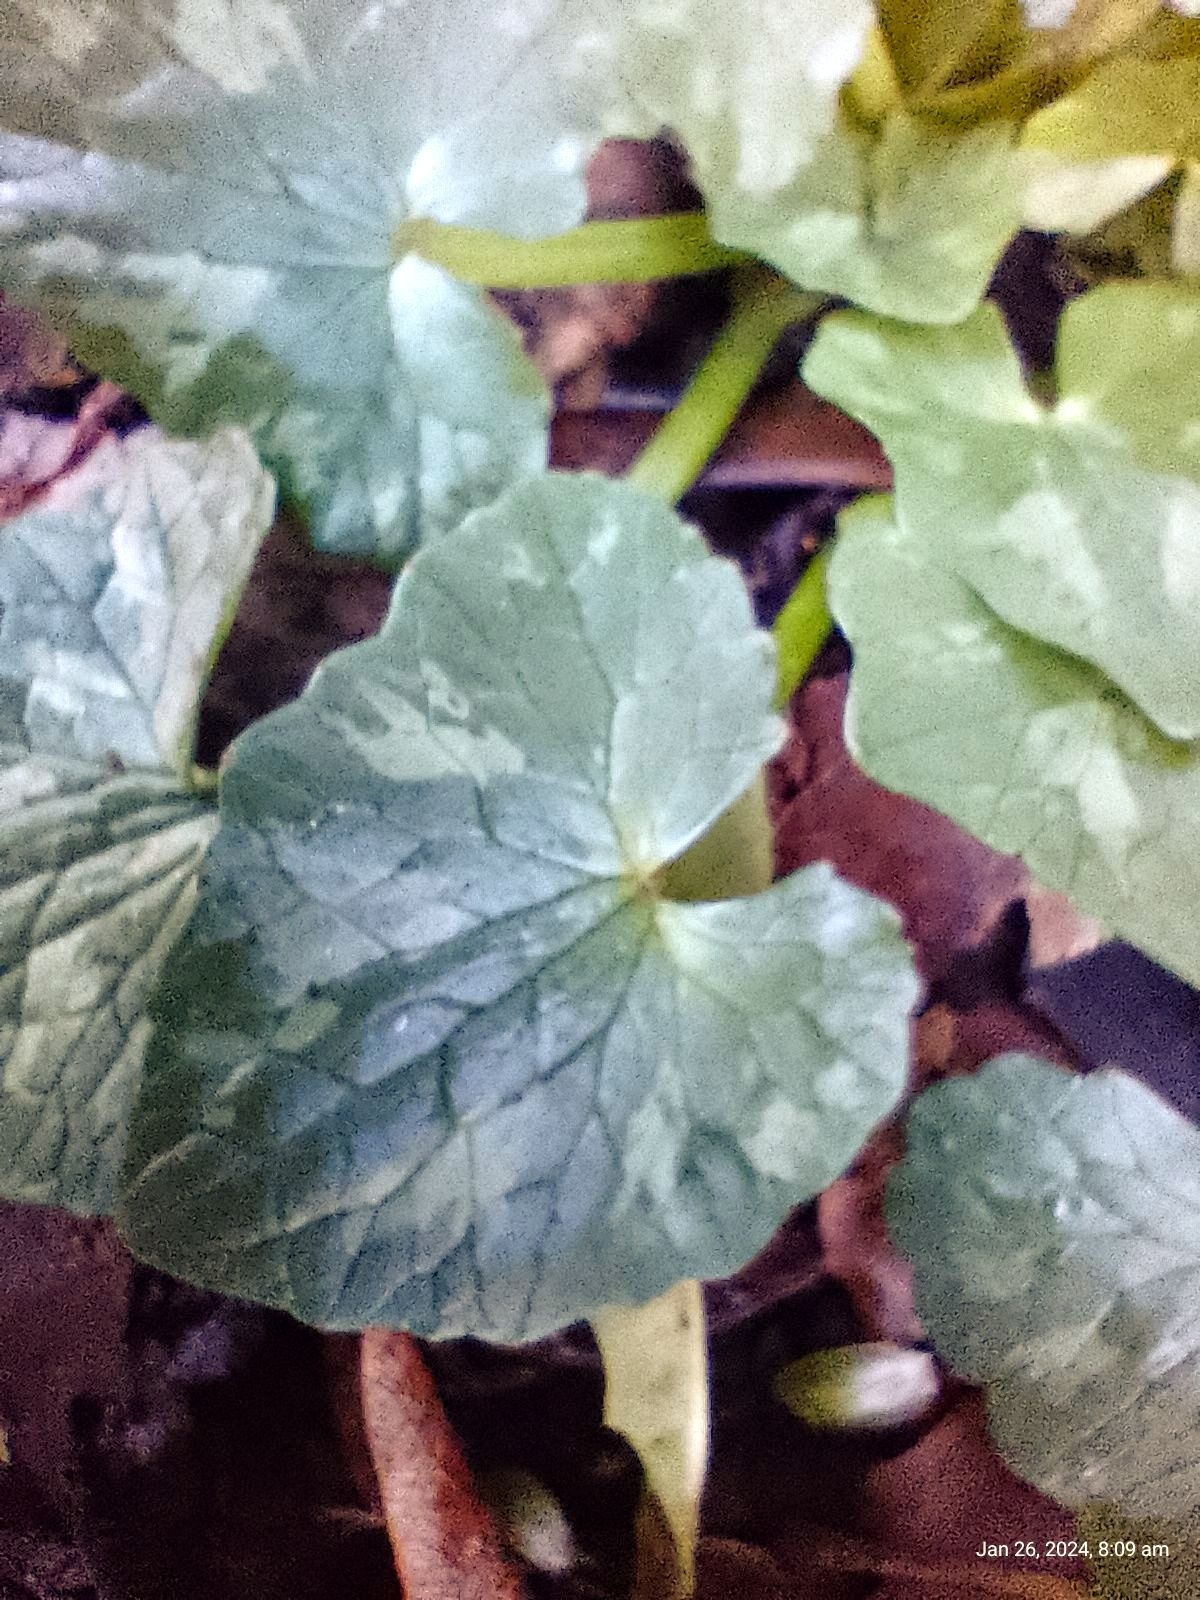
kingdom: Plantae
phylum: Tracheophyta
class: Magnoliopsida
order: Ranunculales
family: Ranunculaceae
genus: Ficaria
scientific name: Ficaria verna
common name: Lesser celandine
